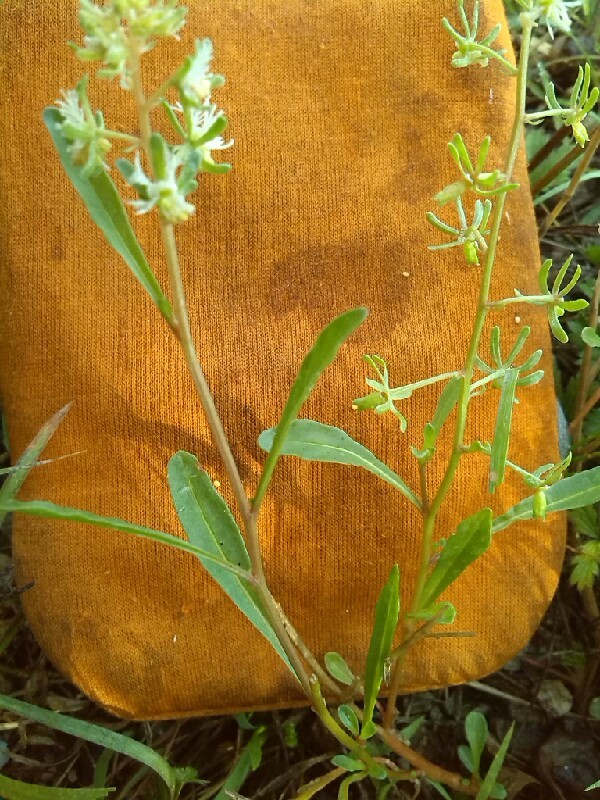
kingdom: Plantae
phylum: Tracheophyta
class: Magnoliopsida
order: Brassicales
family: Resedaceae
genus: Reseda
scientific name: Reseda phyteuma
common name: Corn mignonette
